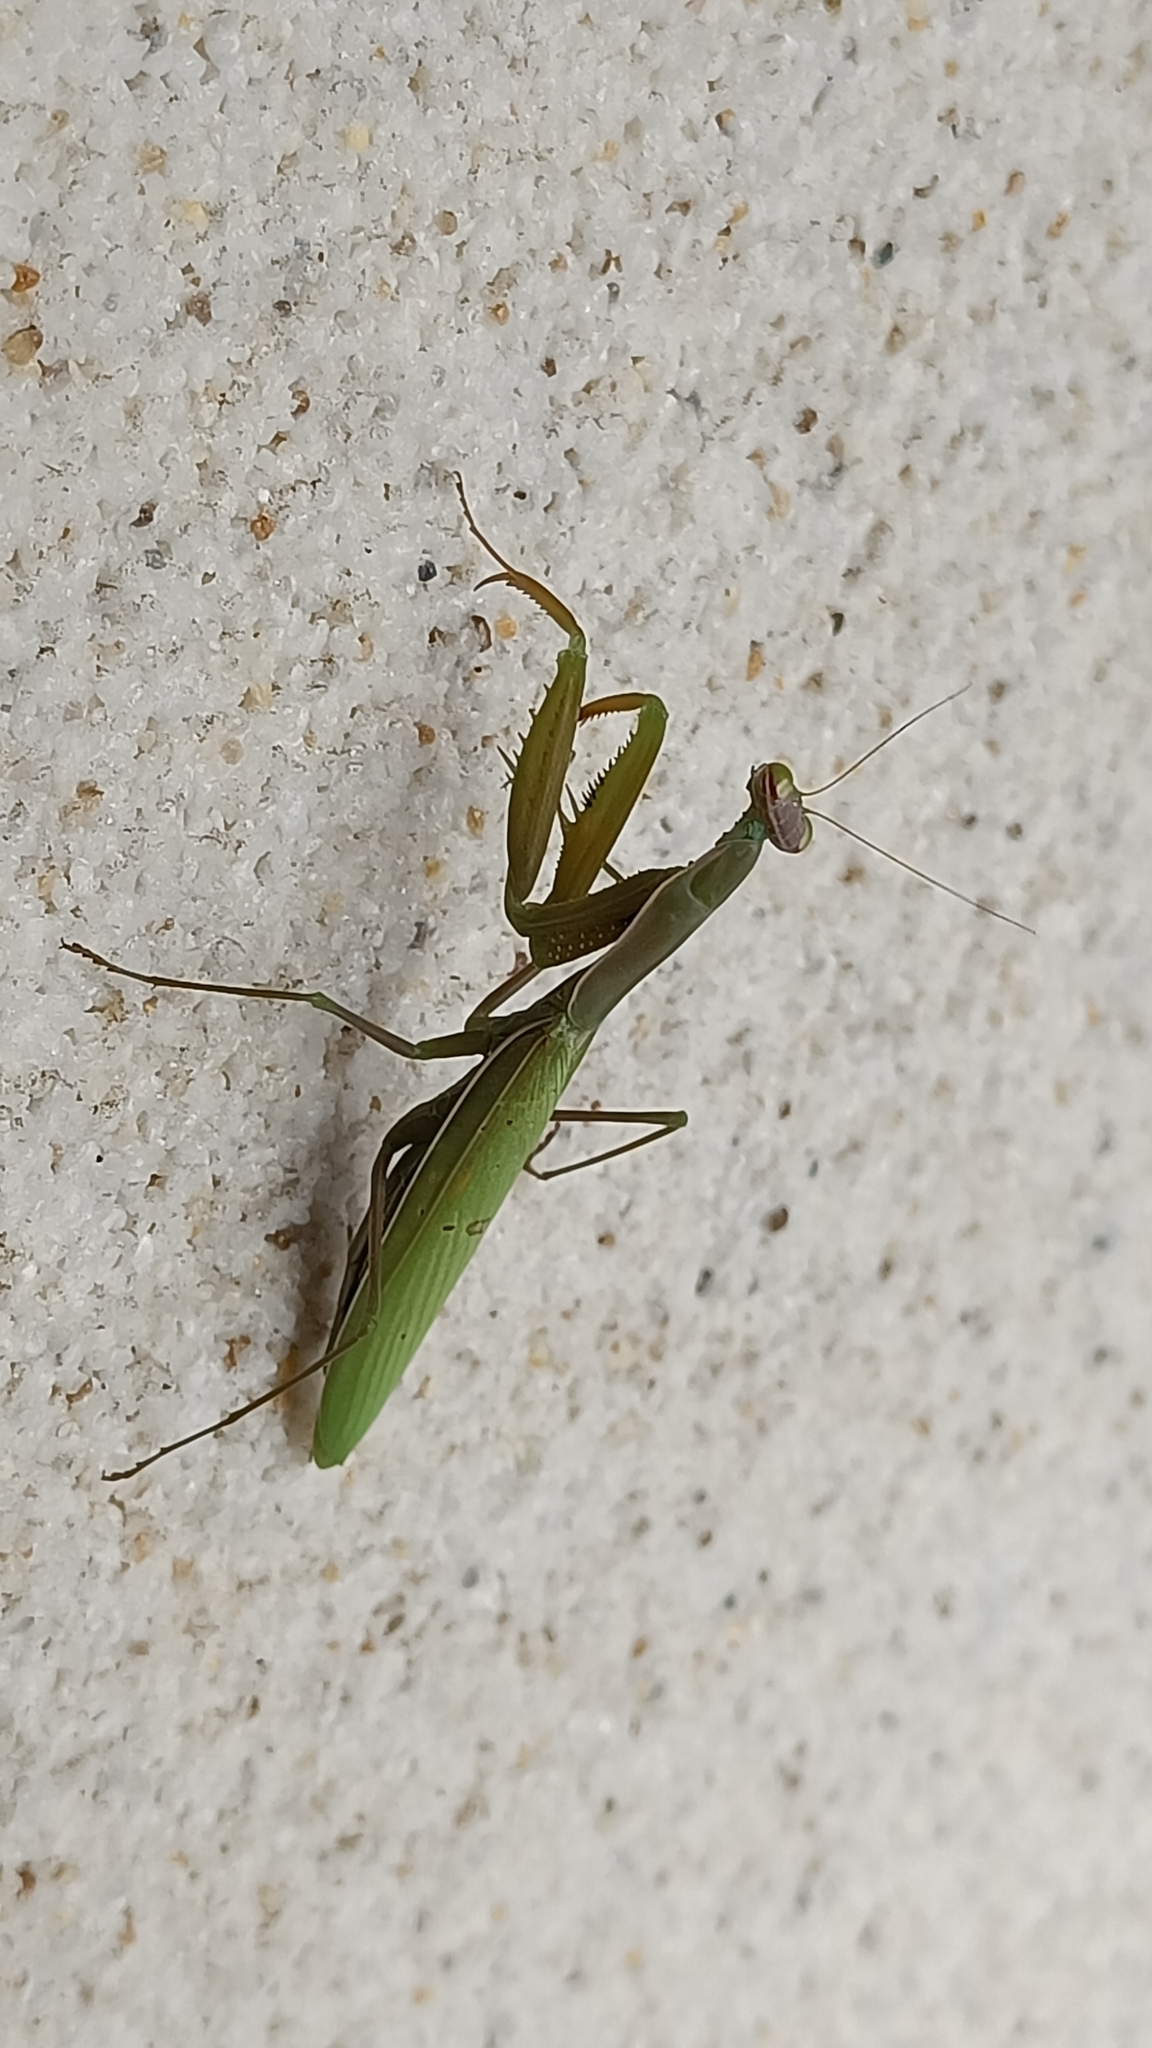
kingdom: Animalia
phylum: Arthropoda
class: Insecta
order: Mantodea
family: Mantidae
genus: Mantis
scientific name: Mantis religiosa
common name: Praying mantis
